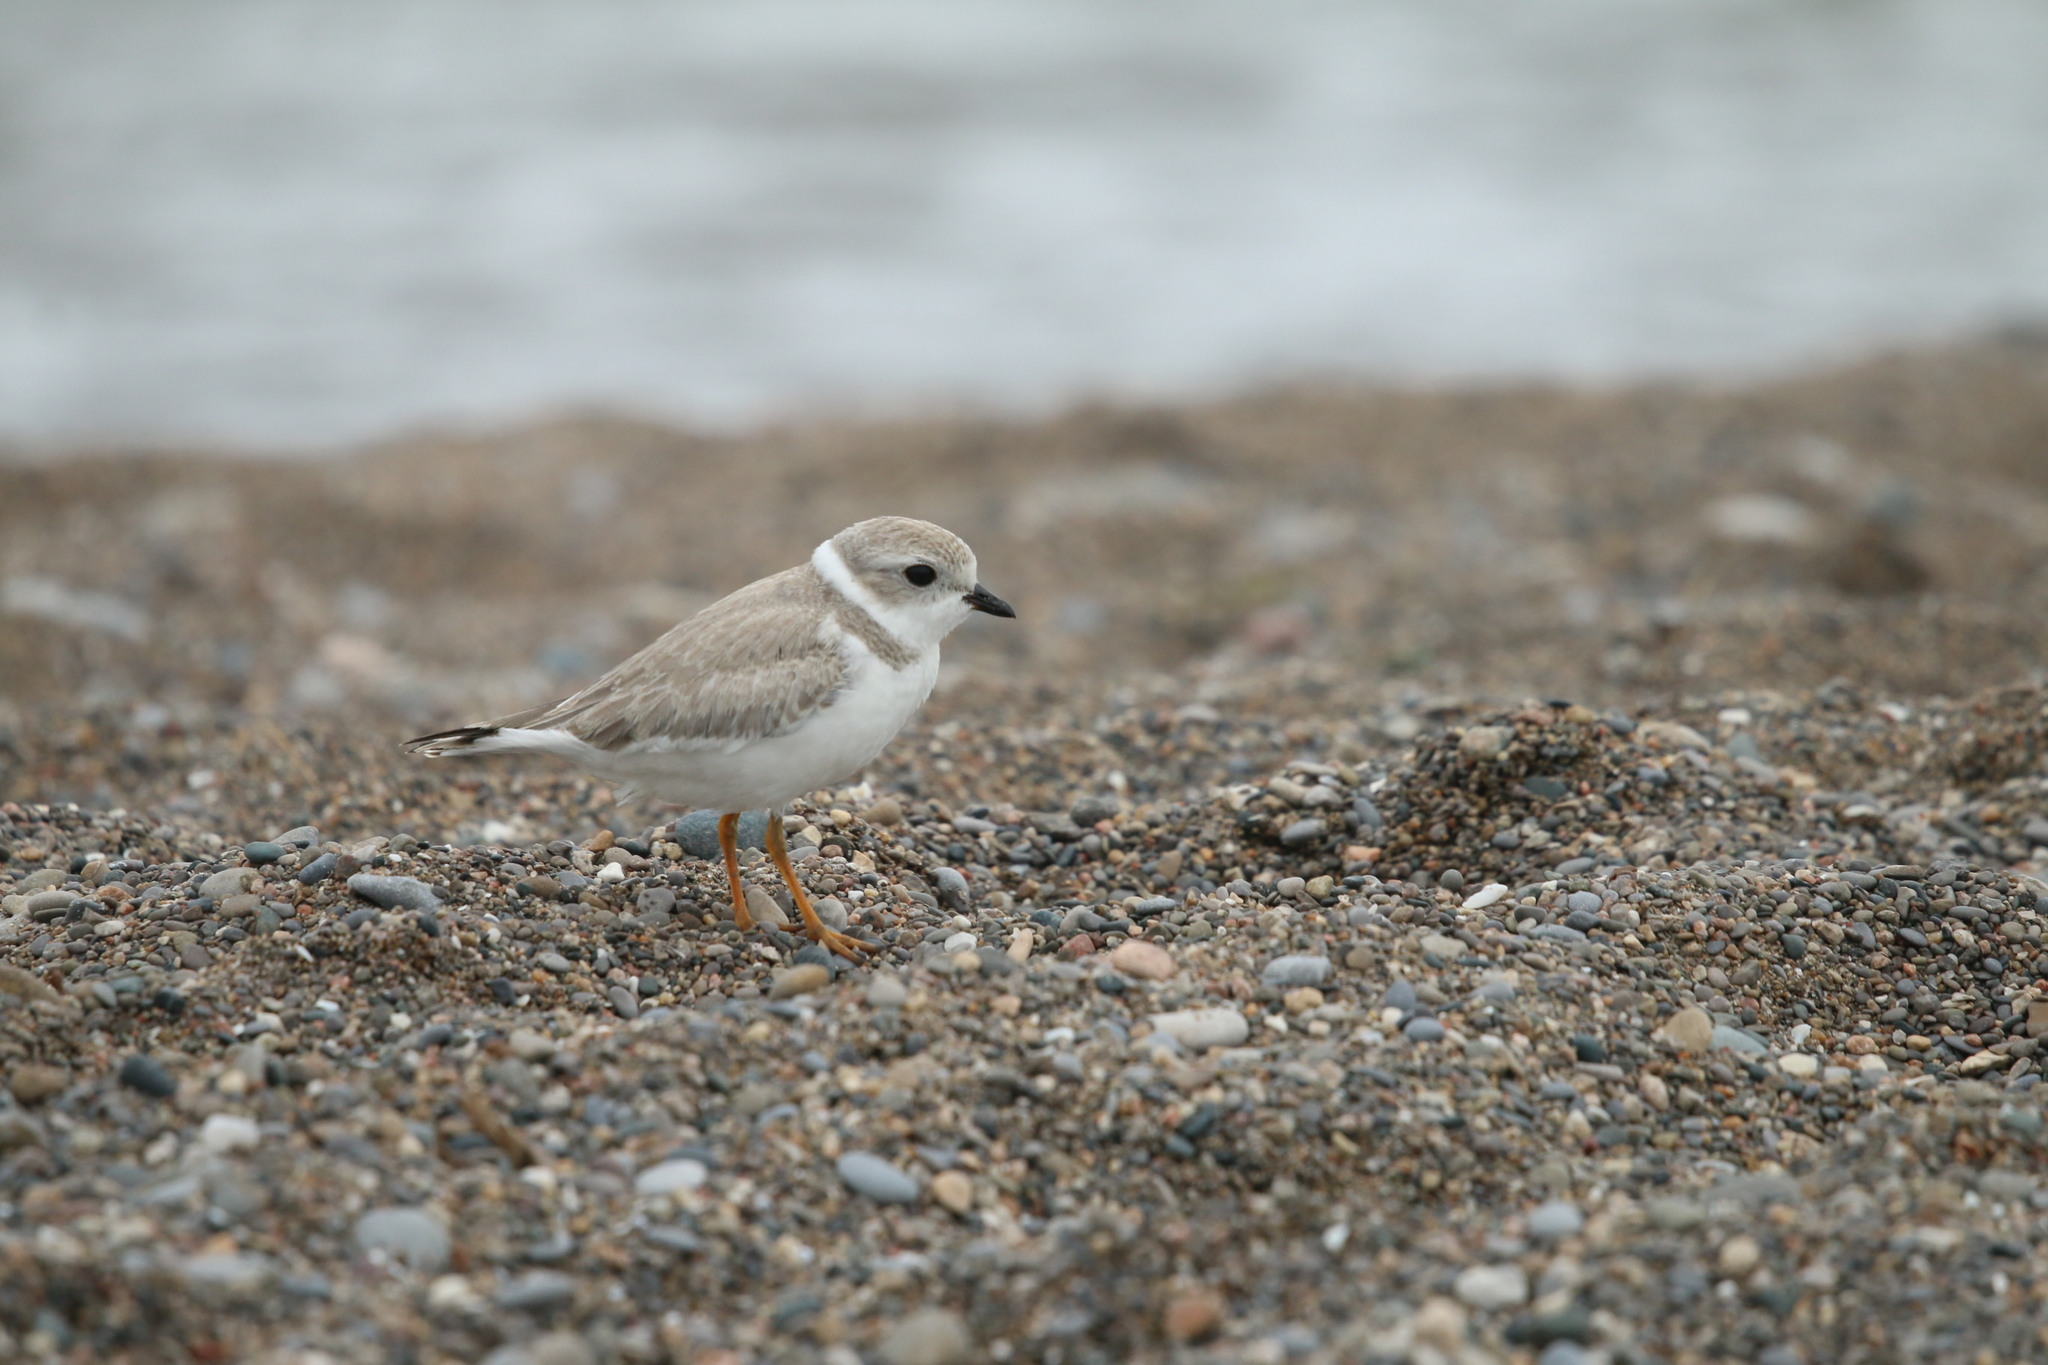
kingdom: Animalia
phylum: Chordata
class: Aves
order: Charadriiformes
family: Charadriidae
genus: Charadrius
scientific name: Charadrius melodus
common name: Piping plover
